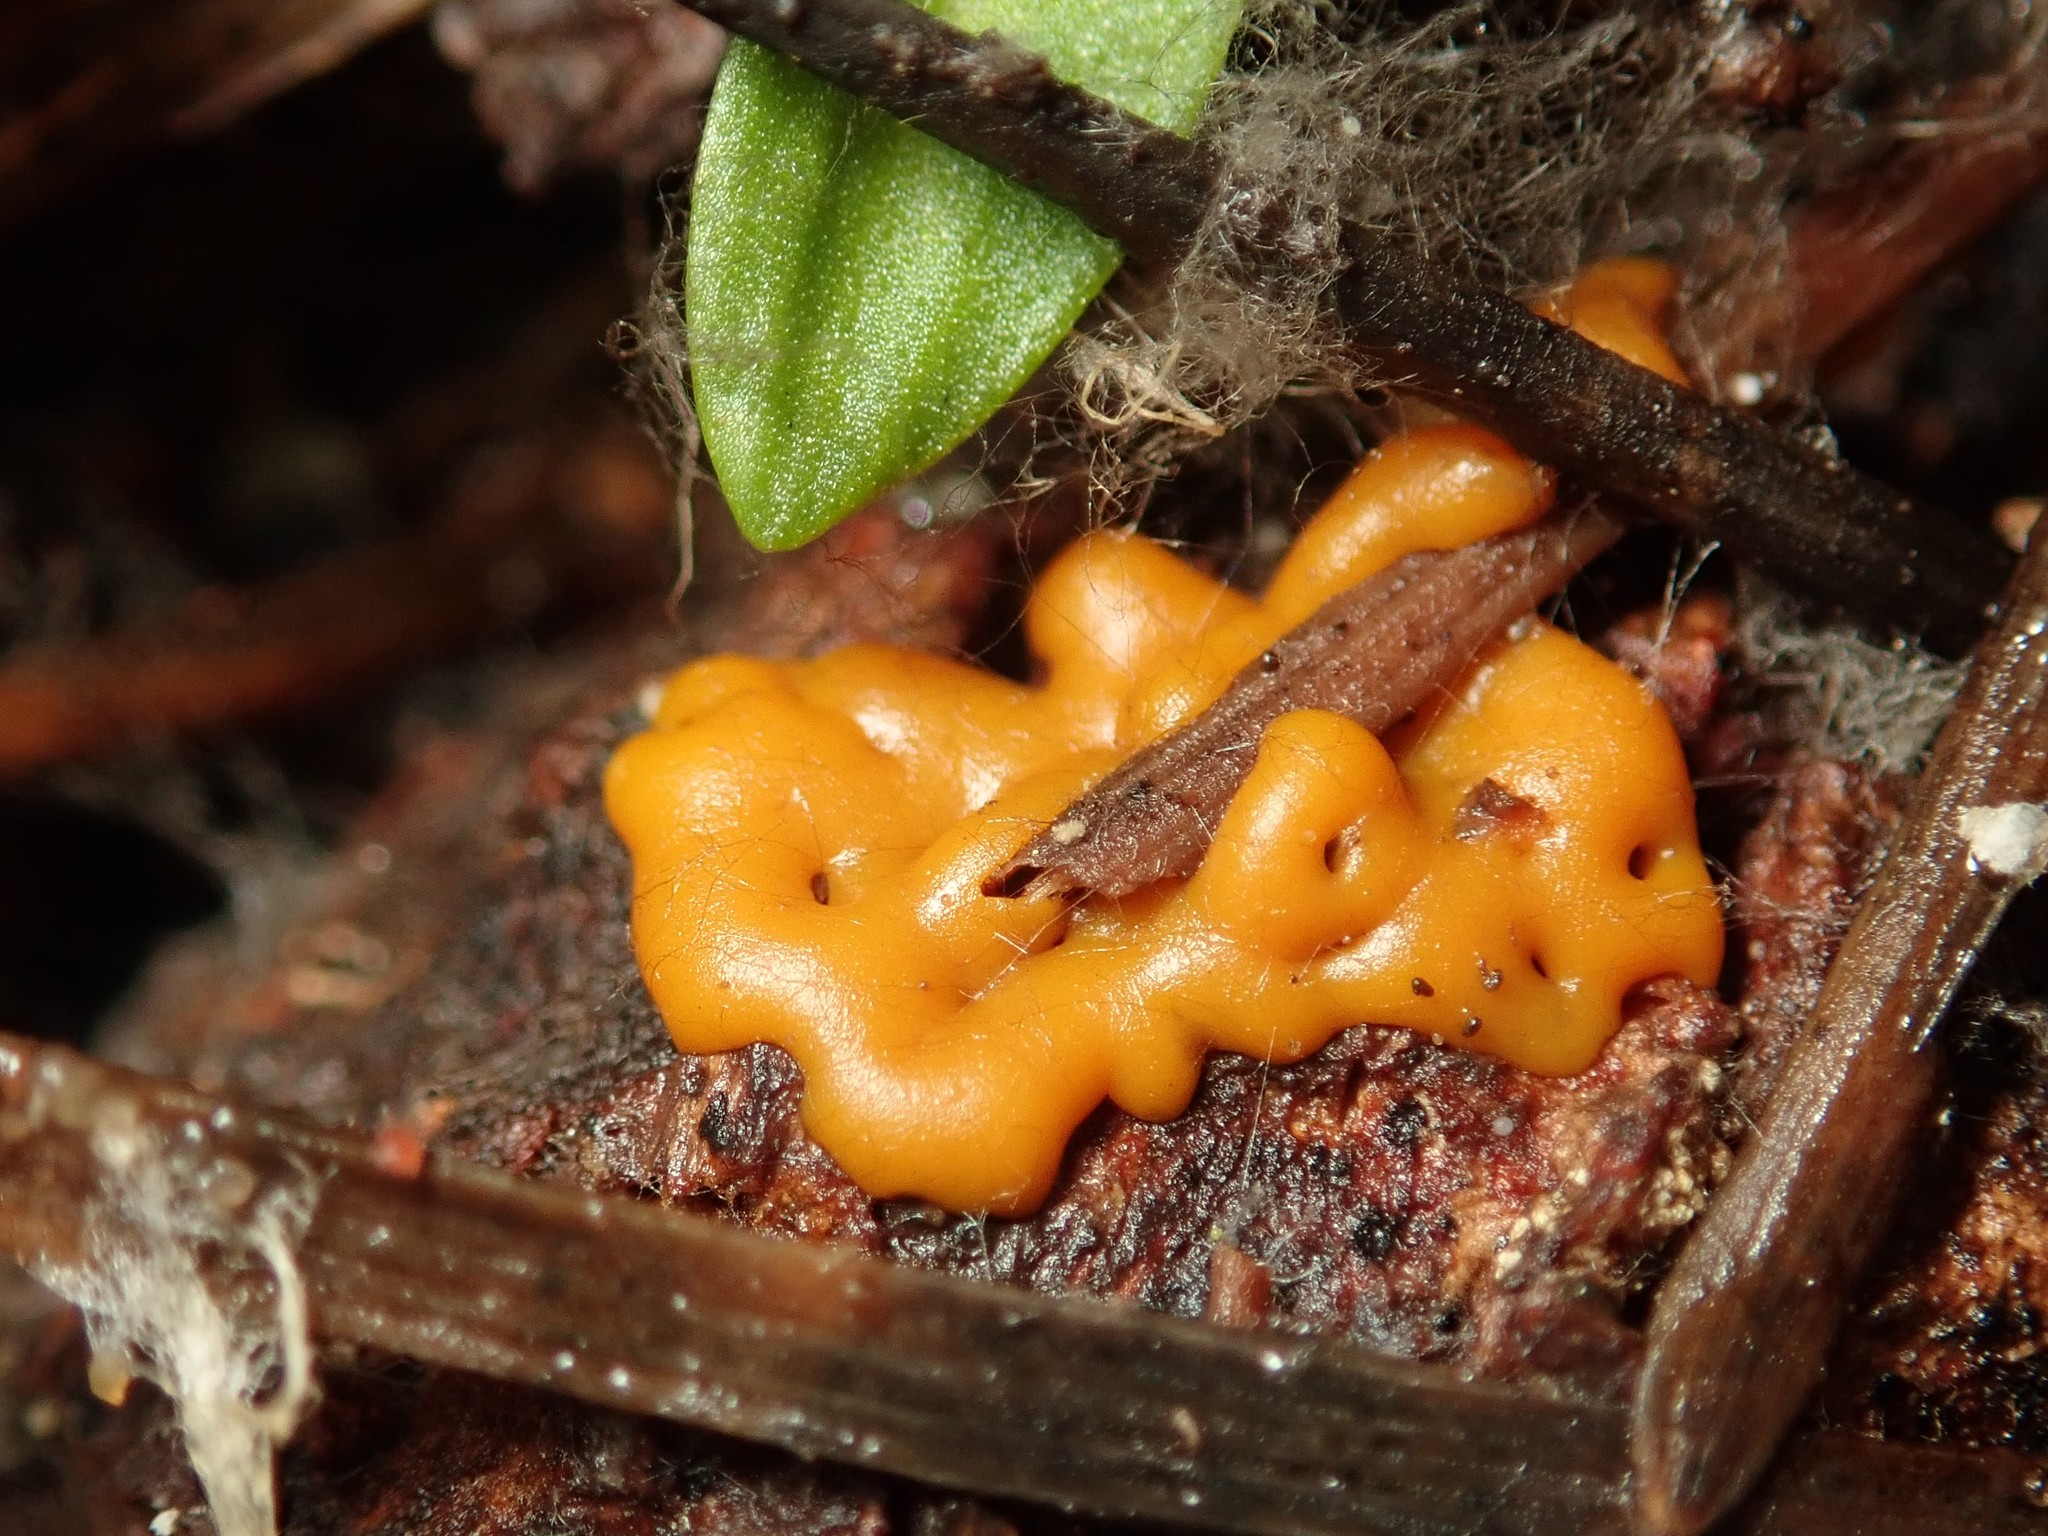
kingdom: Protozoa
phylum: Mycetozoa
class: Myxomycetes
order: Trichiales
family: Dianemataceae
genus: Dianema
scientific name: Dianema corticatum
